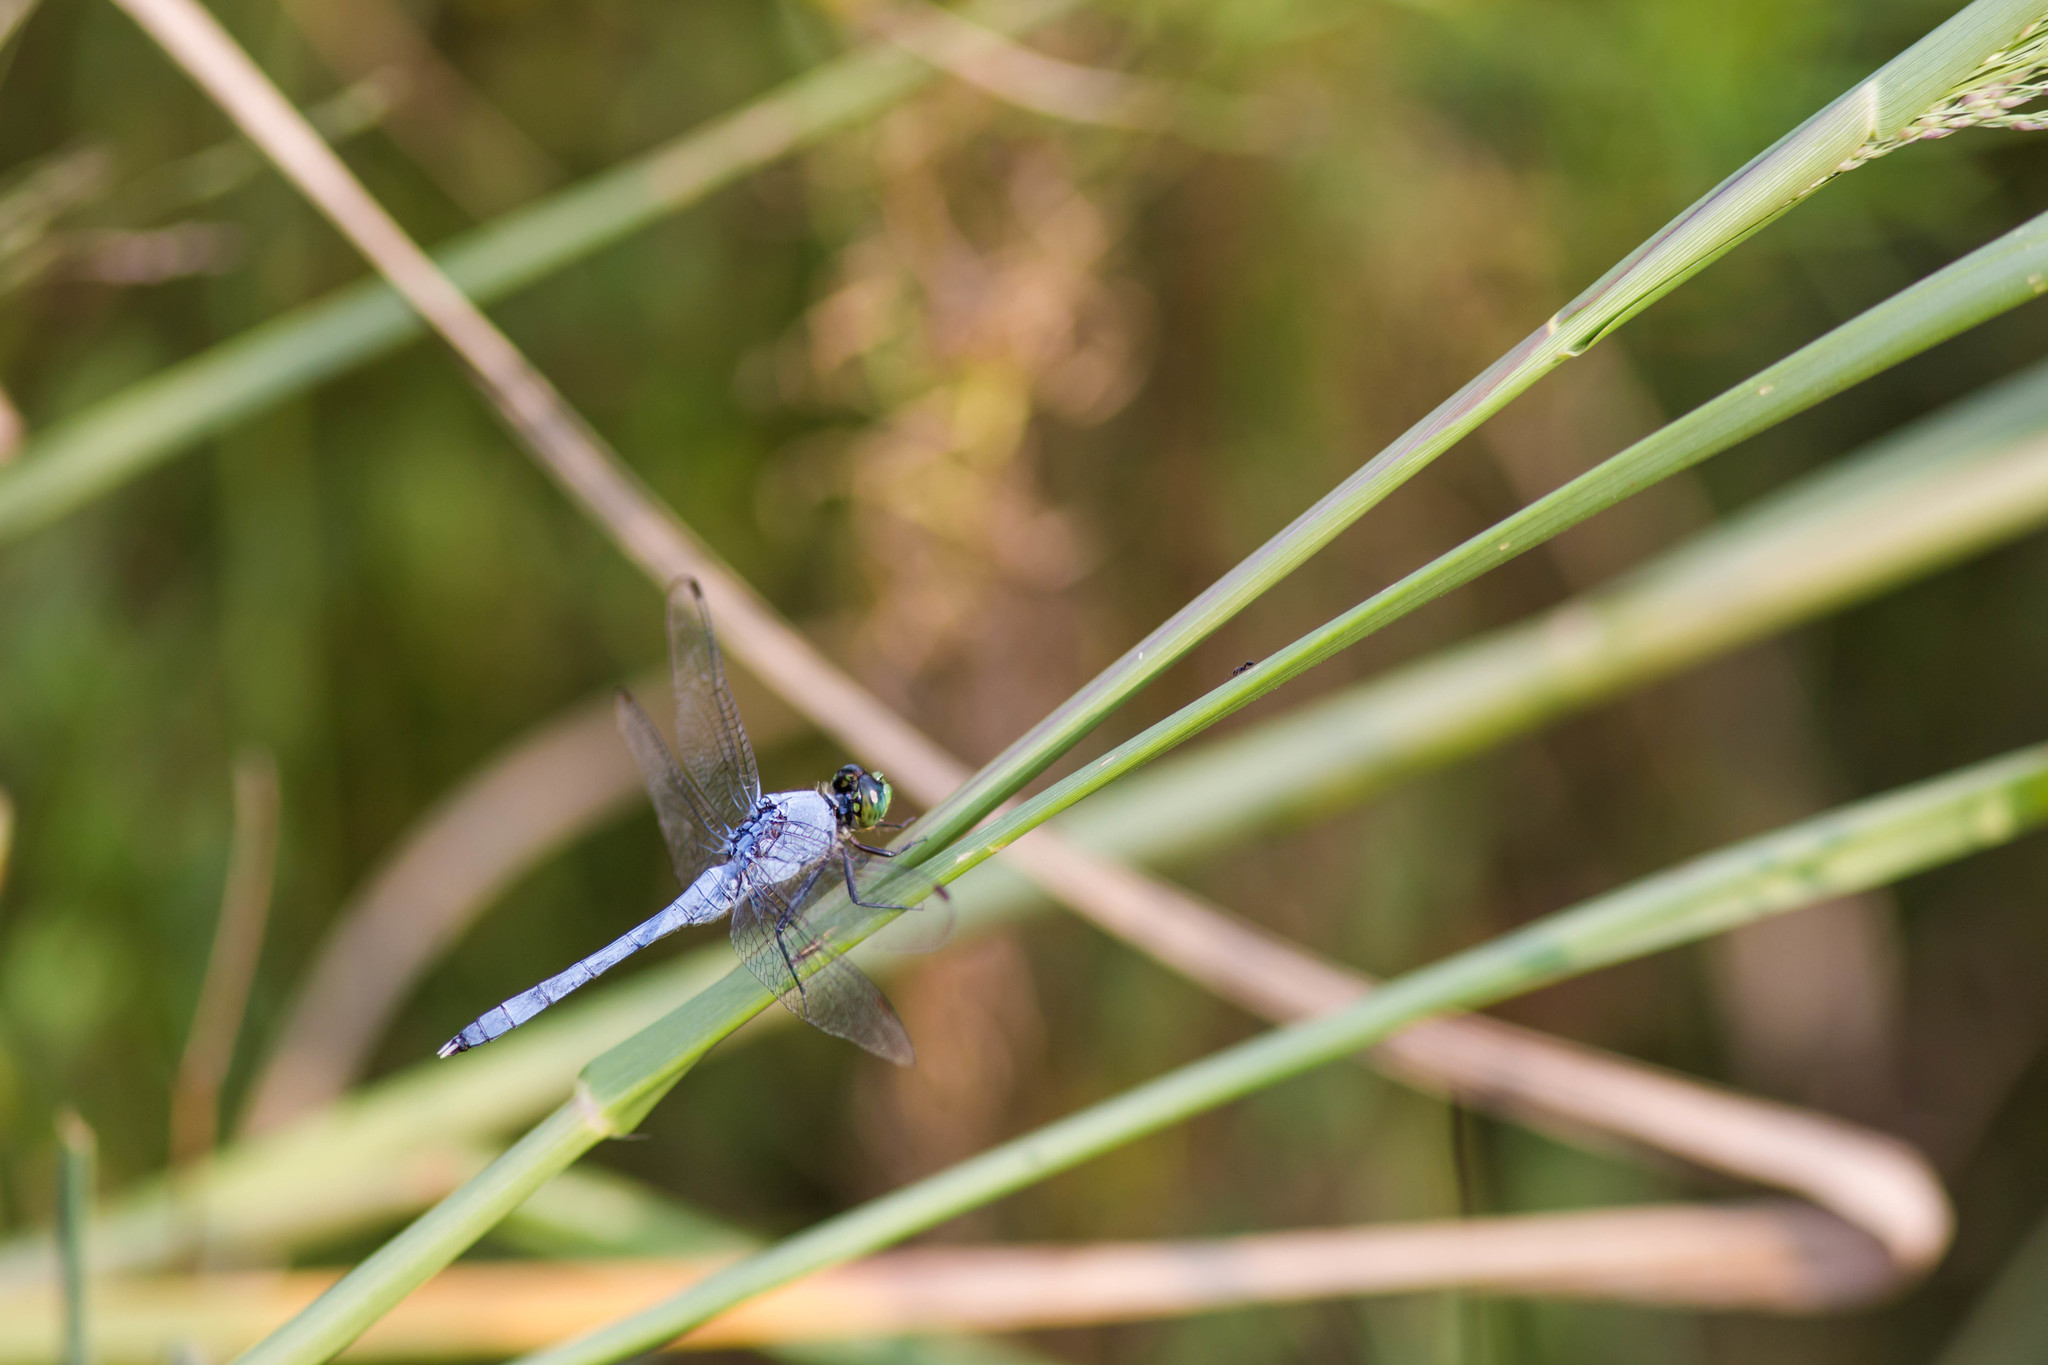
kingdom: Animalia
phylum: Arthropoda
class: Insecta
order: Odonata
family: Libellulidae
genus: Erythemis
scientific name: Erythemis simplicicollis
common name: Eastern pondhawk
